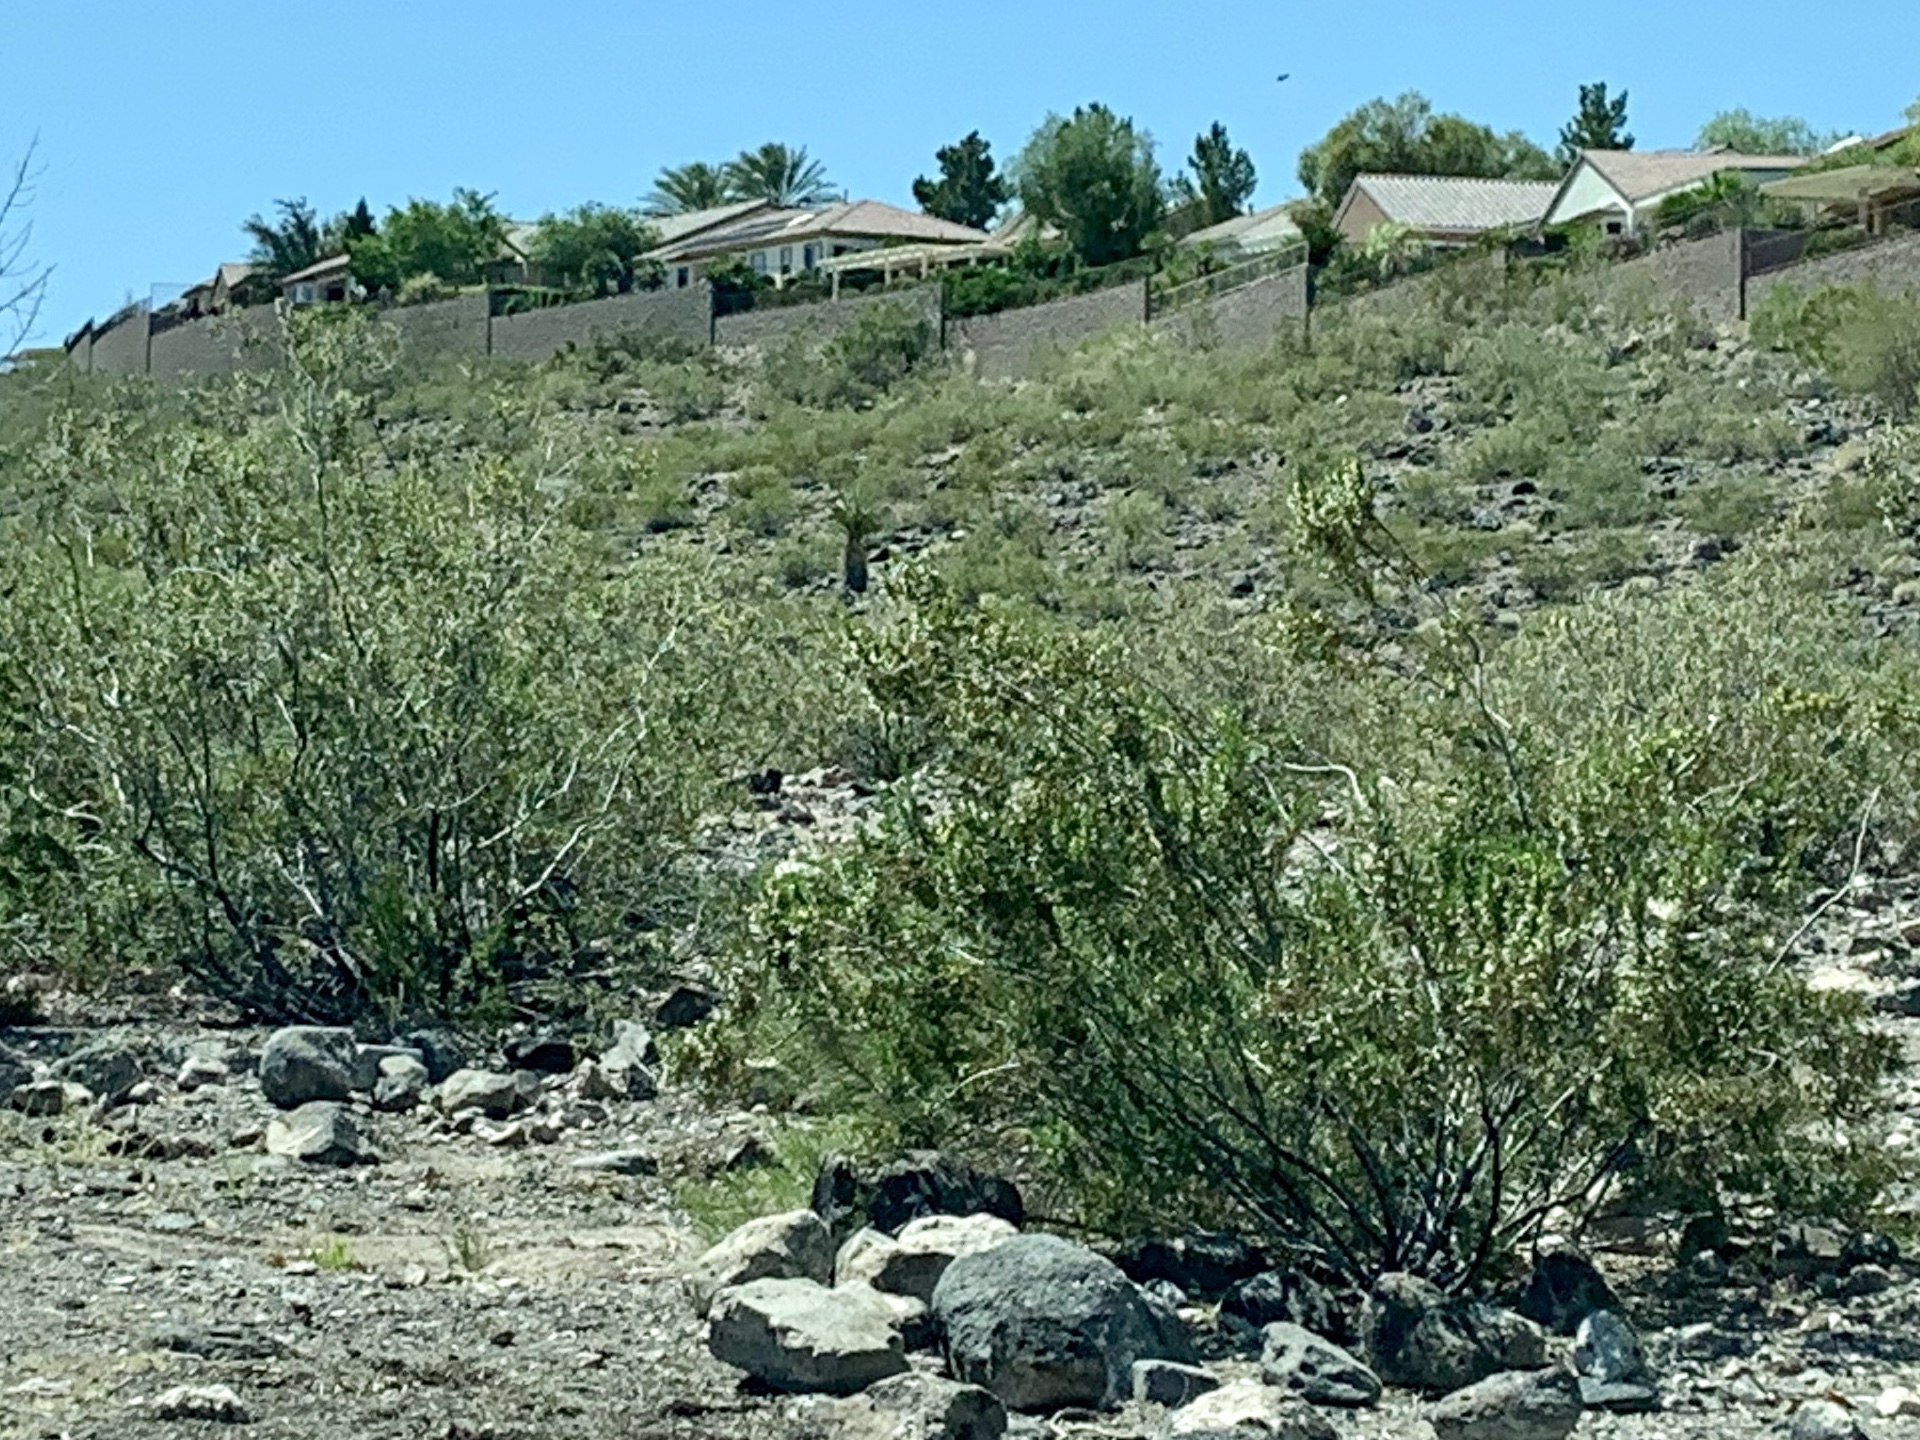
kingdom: Plantae
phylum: Tracheophyta
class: Magnoliopsida
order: Zygophyllales
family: Zygophyllaceae
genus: Larrea
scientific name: Larrea tridentata
